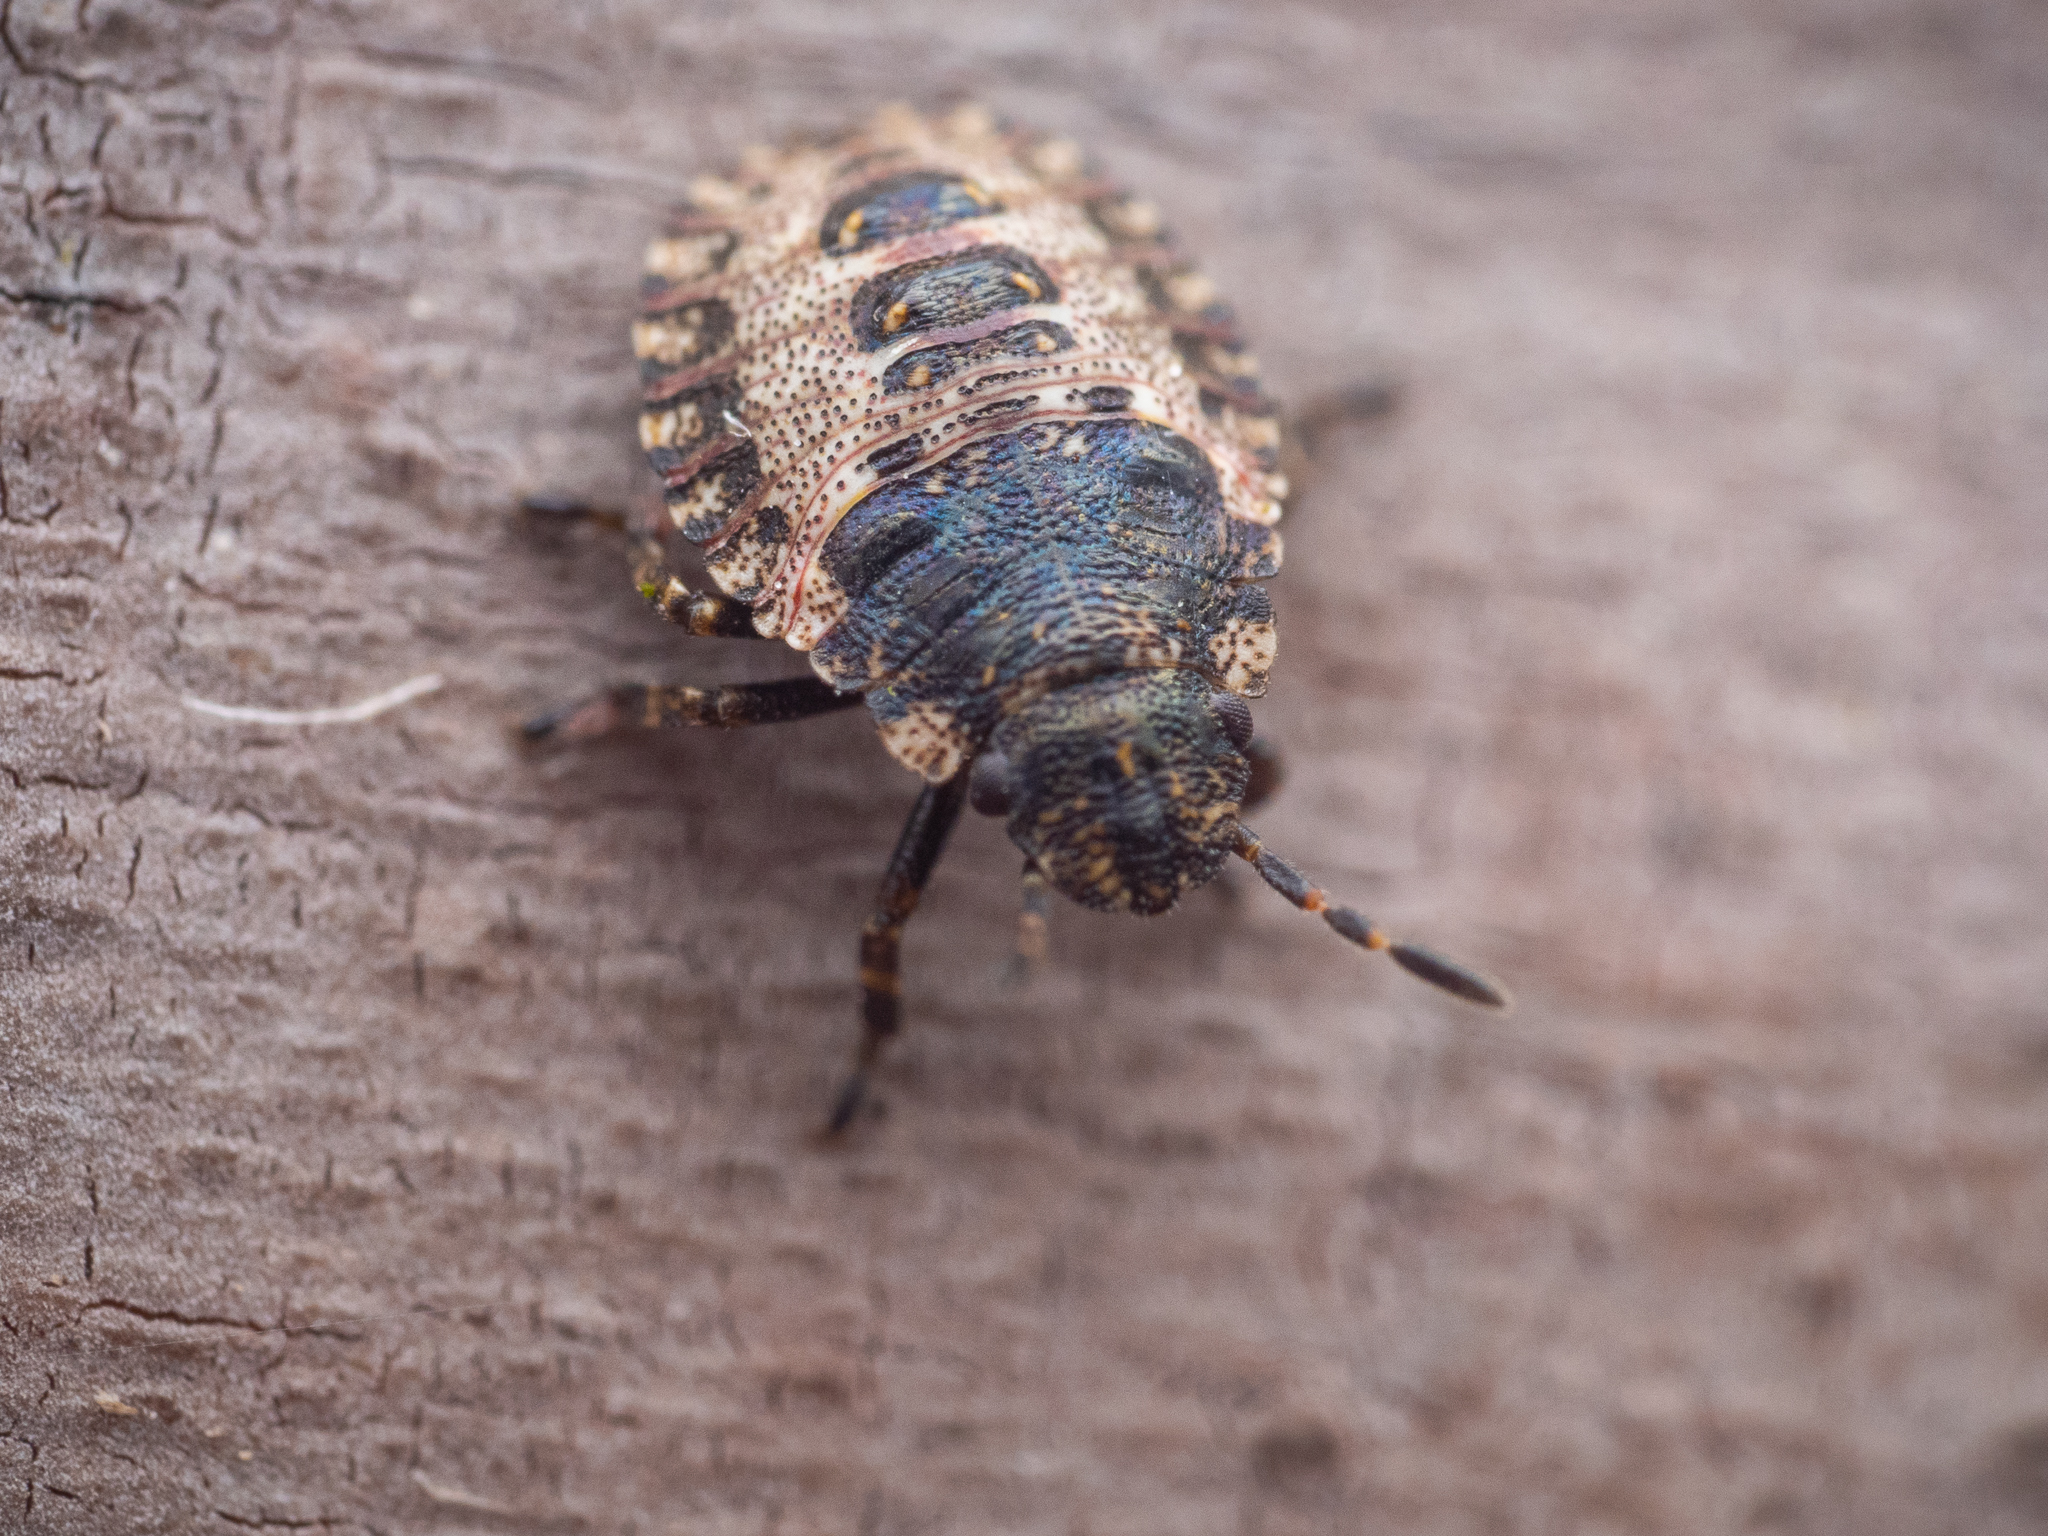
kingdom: Animalia
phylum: Arthropoda
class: Insecta
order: Hemiptera
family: Pentatomidae
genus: Pentatoma
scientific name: Pentatoma rufipes
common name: Forest bug
